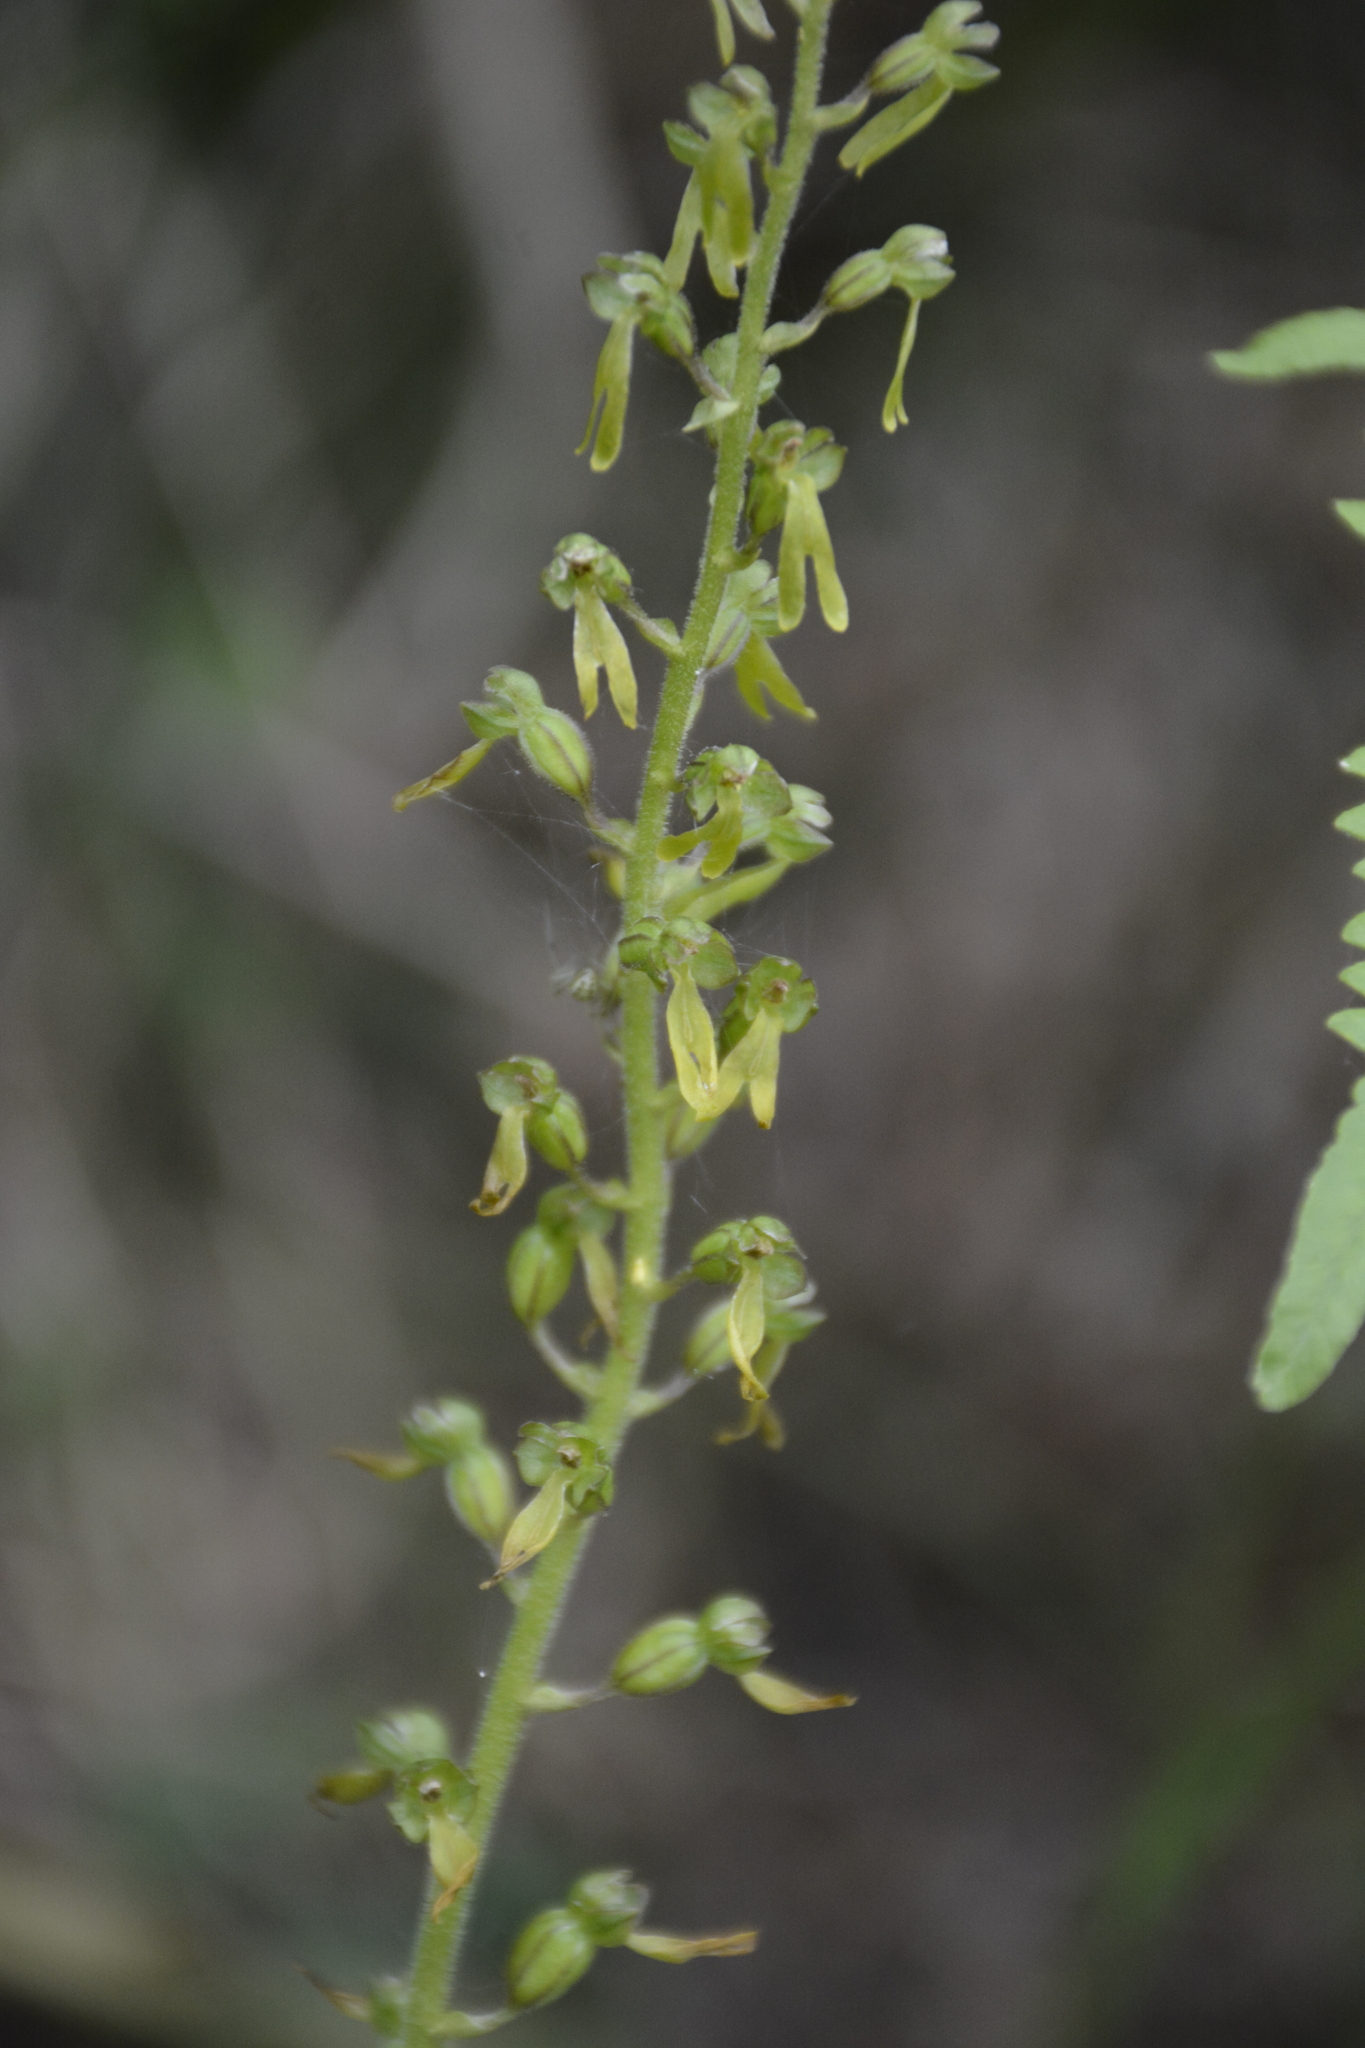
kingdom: Plantae
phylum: Tracheophyta
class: Liliopsida
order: Asparagales
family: Orchidaceae
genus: Neottia
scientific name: Neottia ovata
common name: Common twayblade
